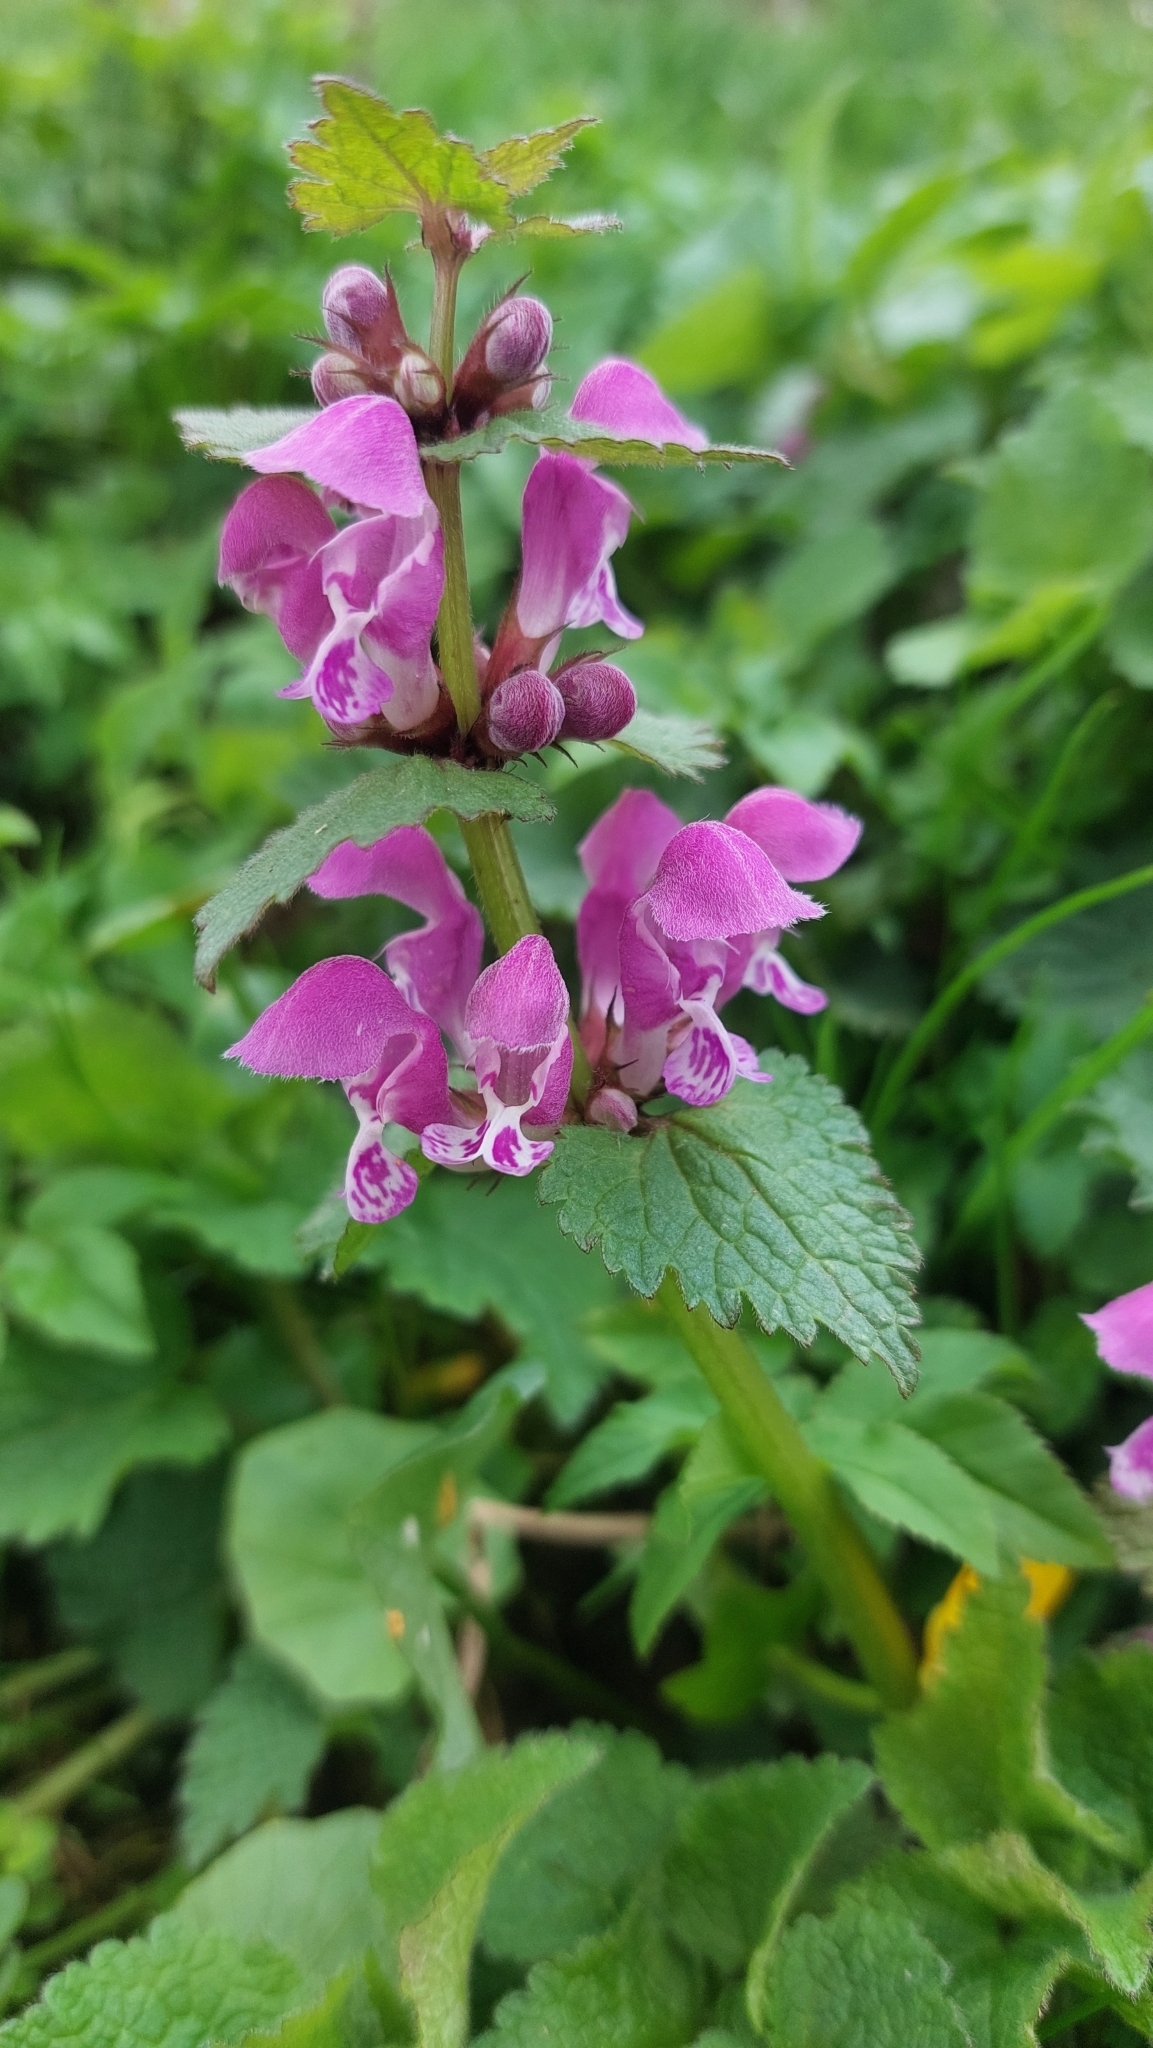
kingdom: Plantae
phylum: Tracheophyta
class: Magnoliopsida
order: Lamiales
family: Lamiaceae
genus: Lamium
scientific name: Lamium maculatum
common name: Spotted dead-nettle
